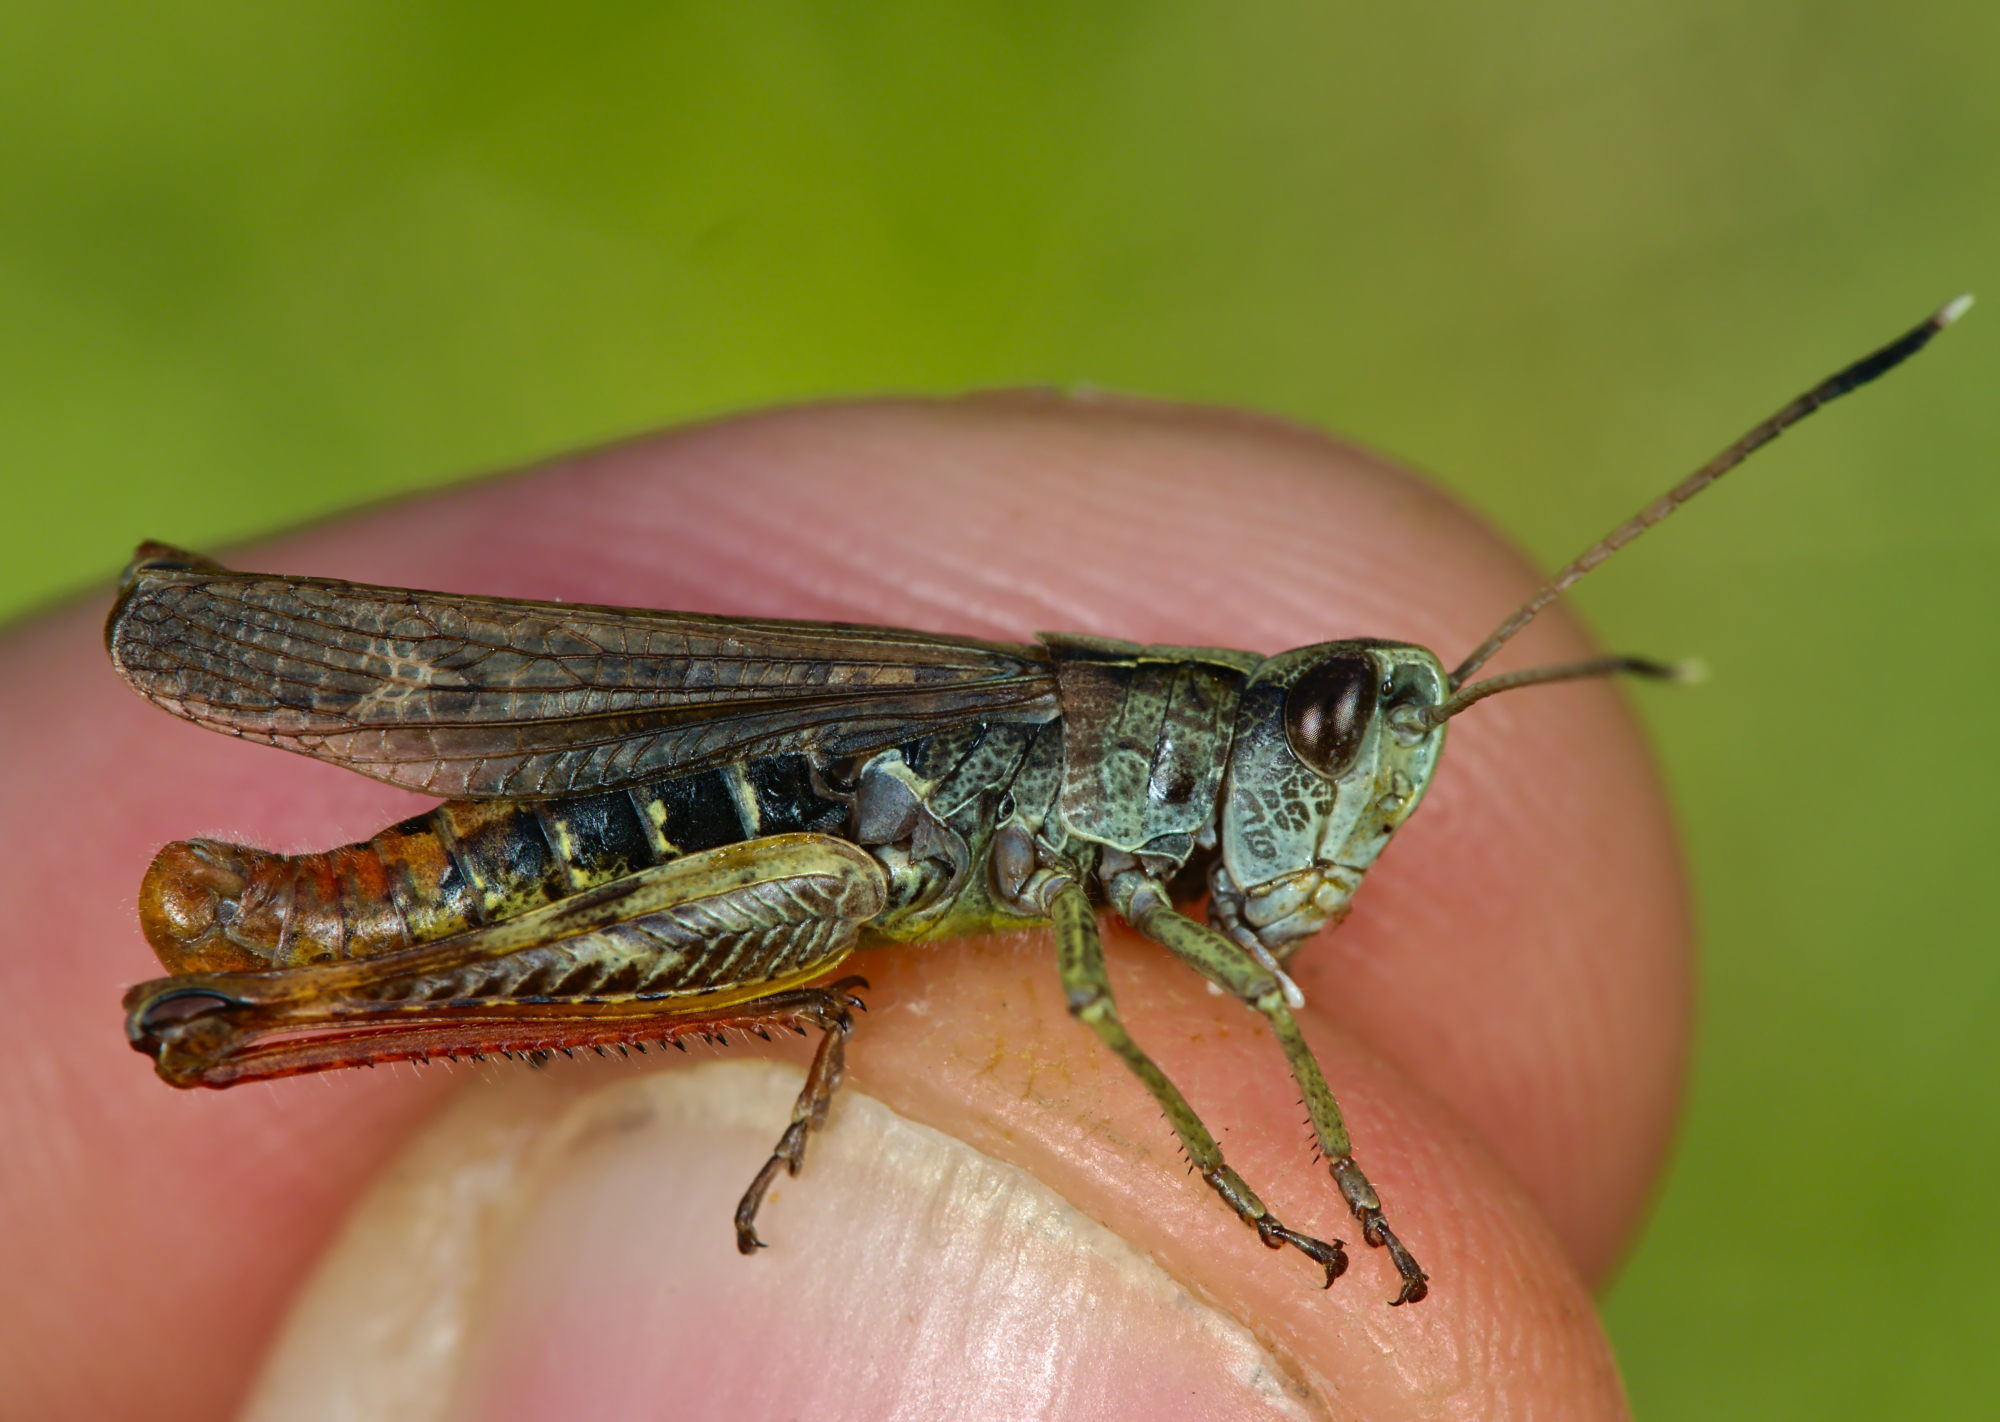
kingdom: Animalia
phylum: Arthropoda
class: Insecta
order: Orthoptera
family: Acrididae
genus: Gomphocerippus
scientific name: Gomphocerippus rufus
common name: Rufous grasshopper
